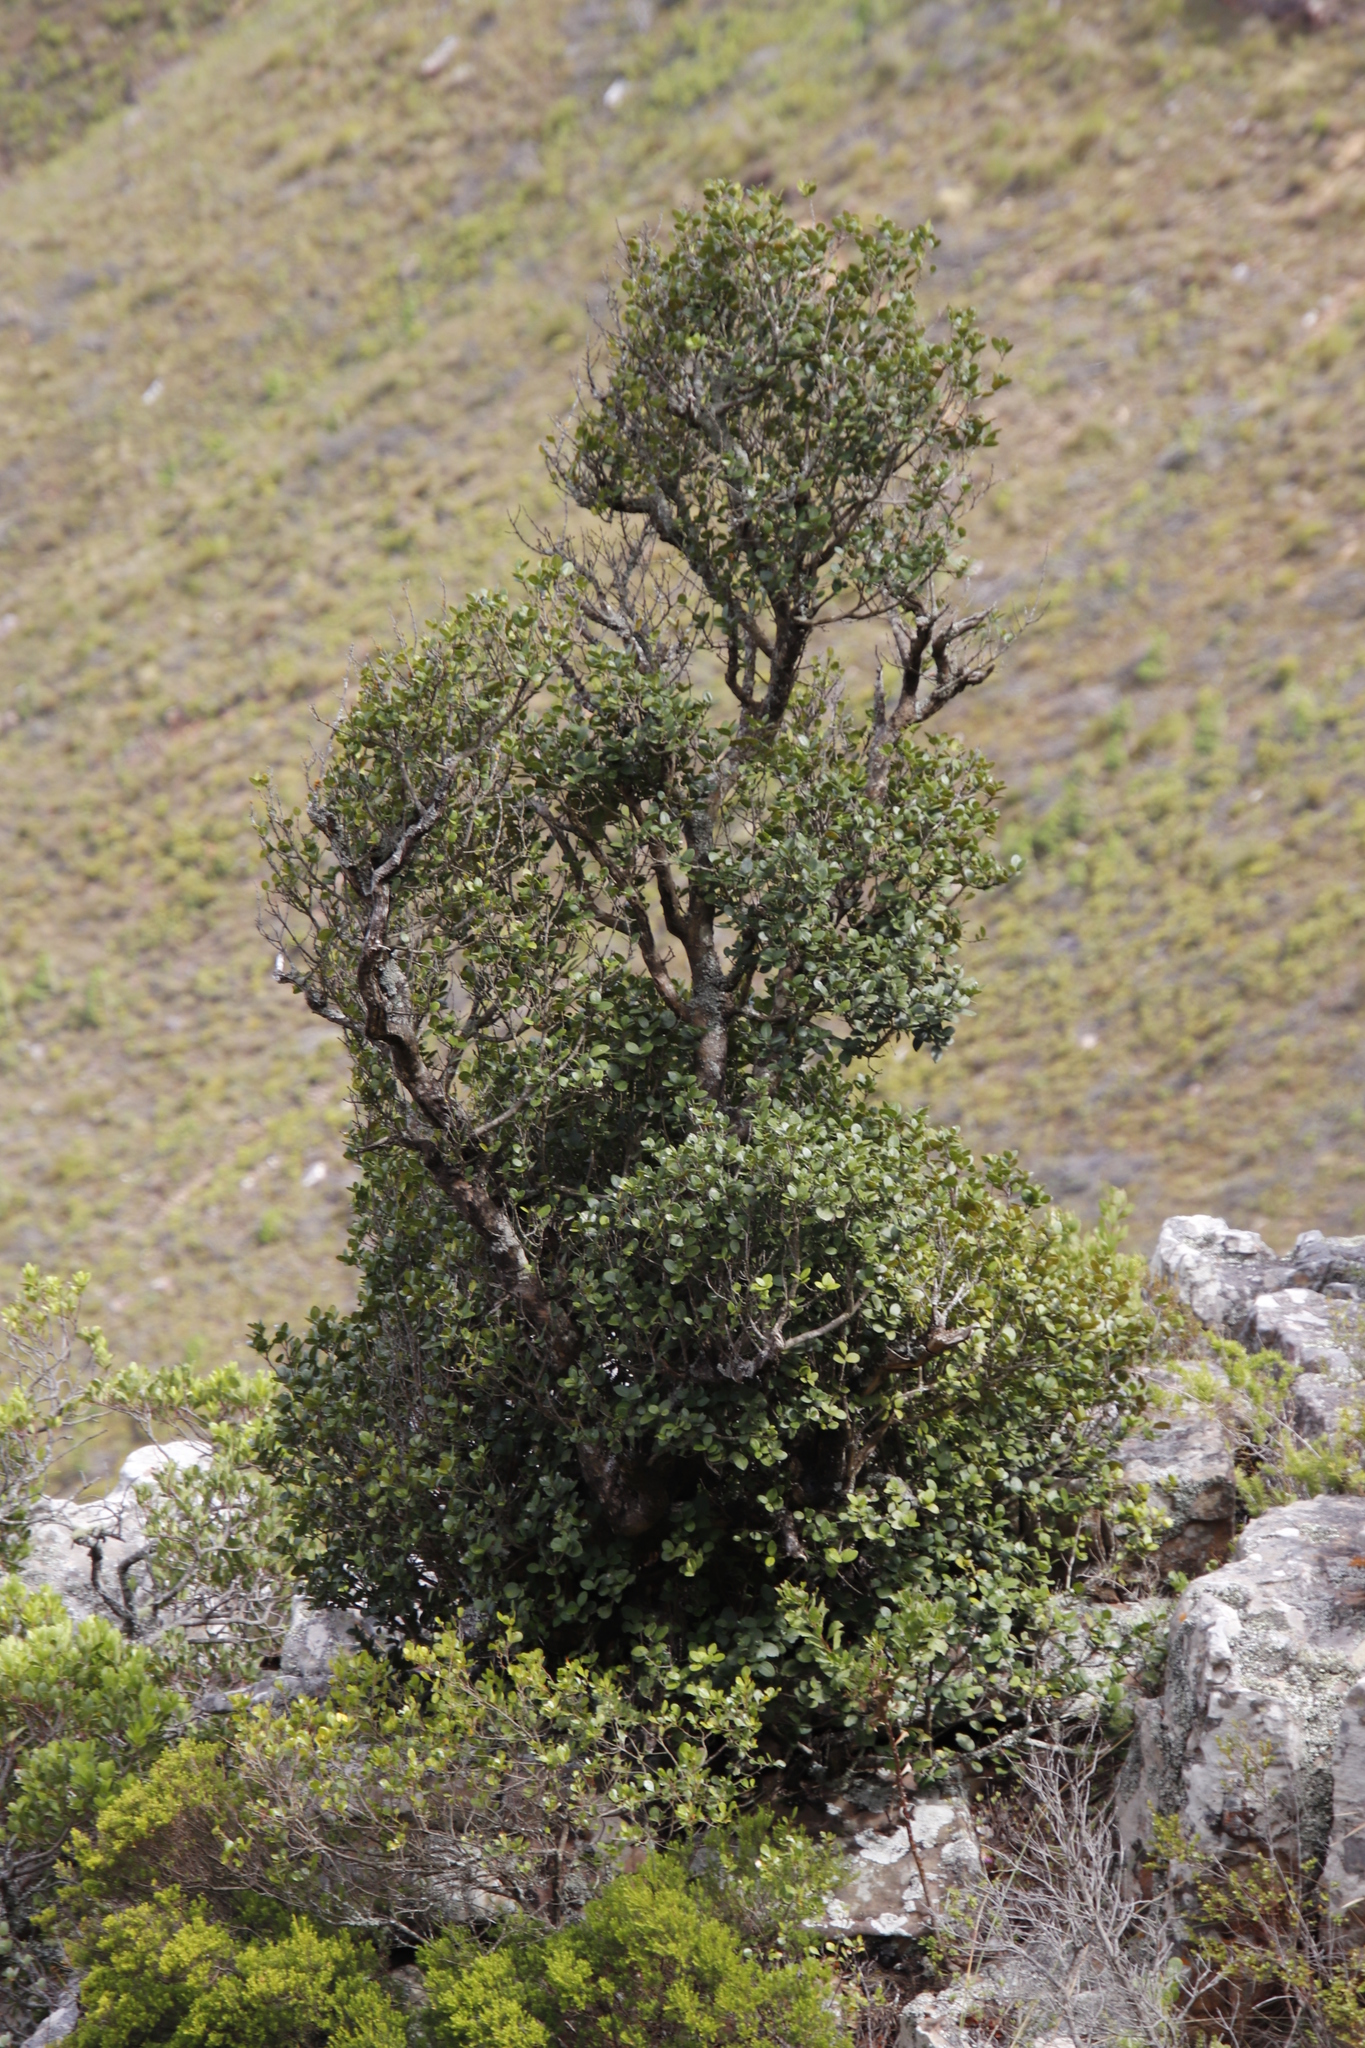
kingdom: Plantae
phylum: Tracheophyta
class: Magnoliopsida
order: Celastrales
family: Celastraceae
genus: Maurocenia
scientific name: Maurocenia frangula
